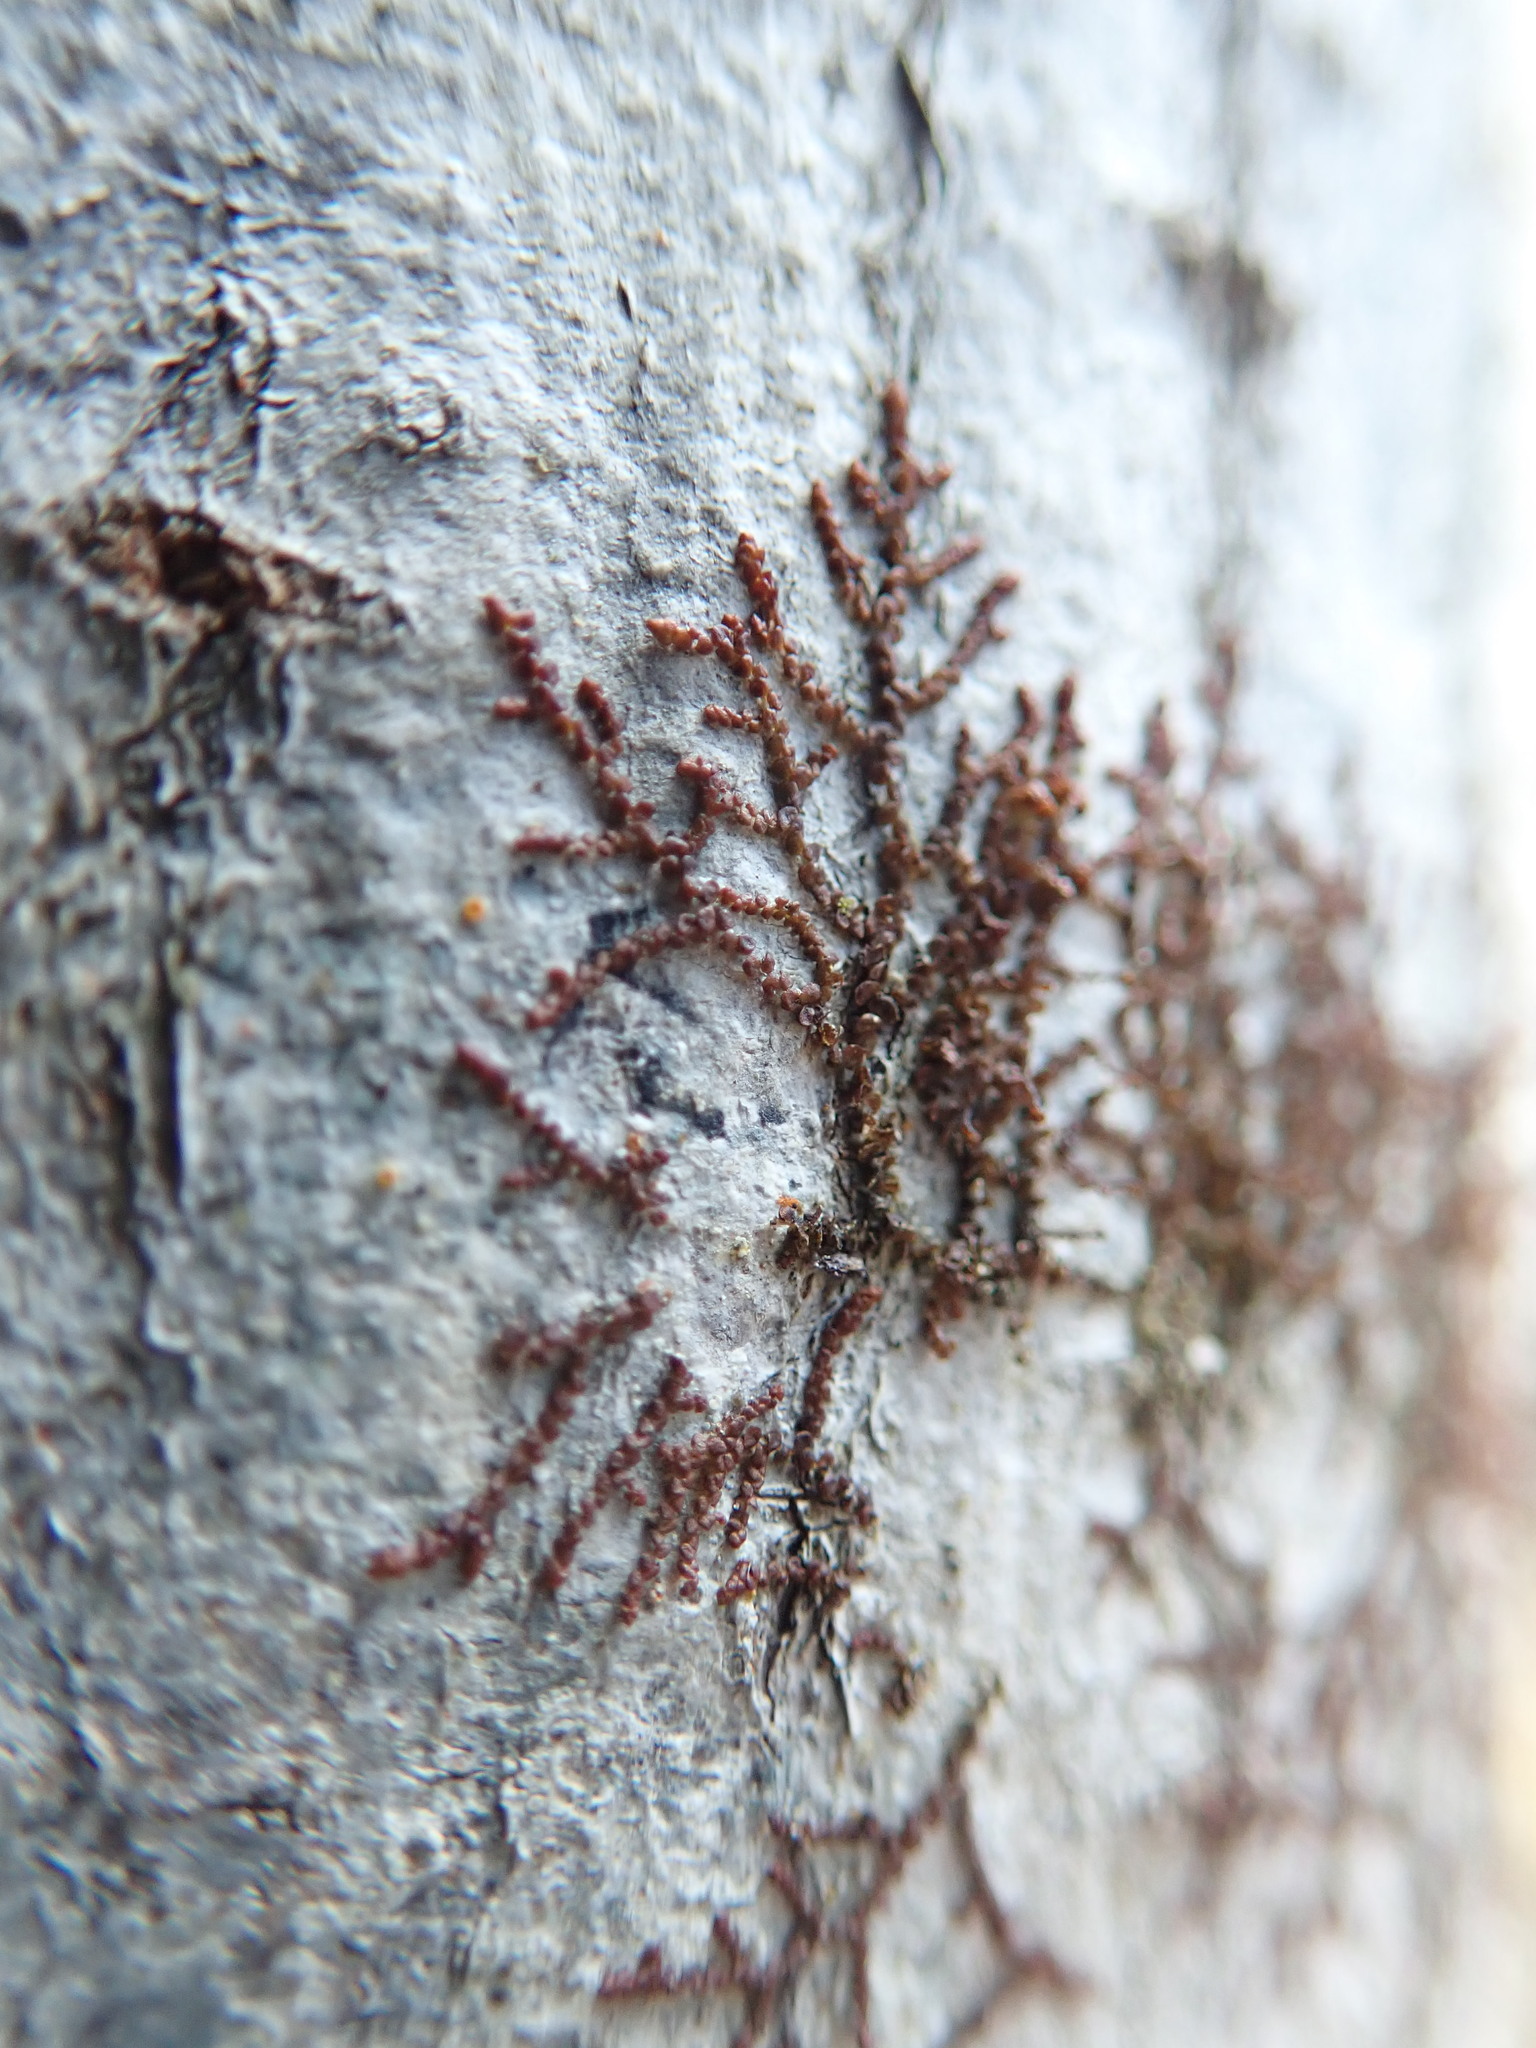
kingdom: Plantae
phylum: Marchantiophyta
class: Jungermanniopsida
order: Porellales
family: Frullaniaceae
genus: Frullania
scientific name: Frullania bolanderi
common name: Bolander s scalewort
